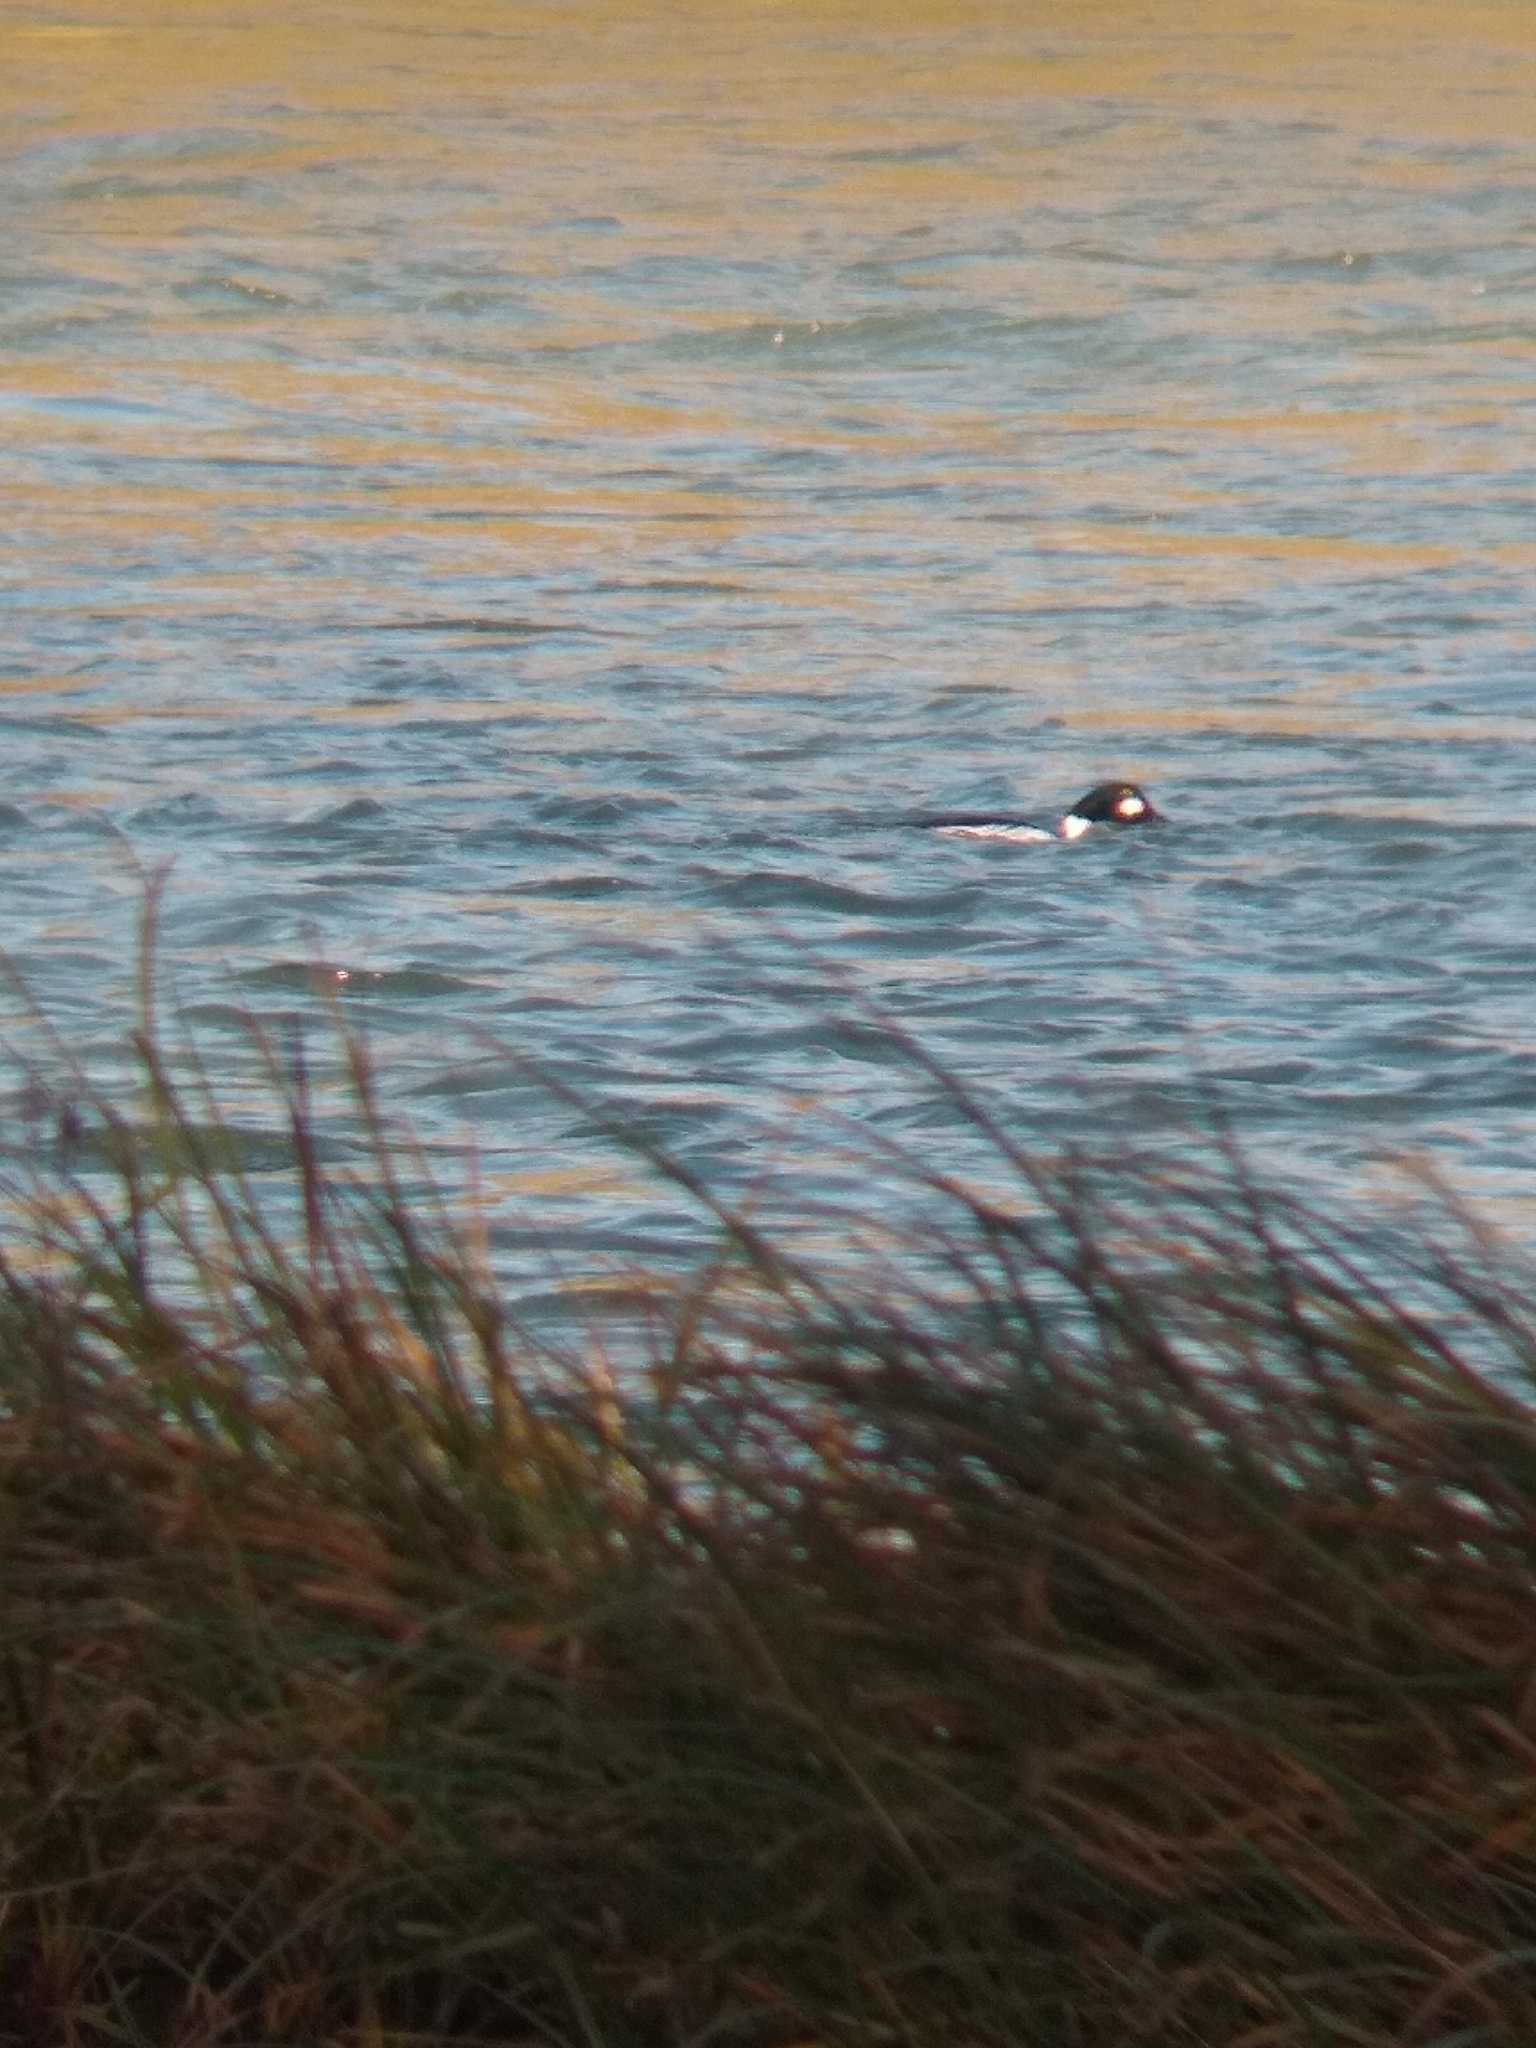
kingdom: Animalia
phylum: Chordata
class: Aves
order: Anseriformes
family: Anatidae
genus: Bucephala
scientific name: Bucephala clangula
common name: Common goldeneye
